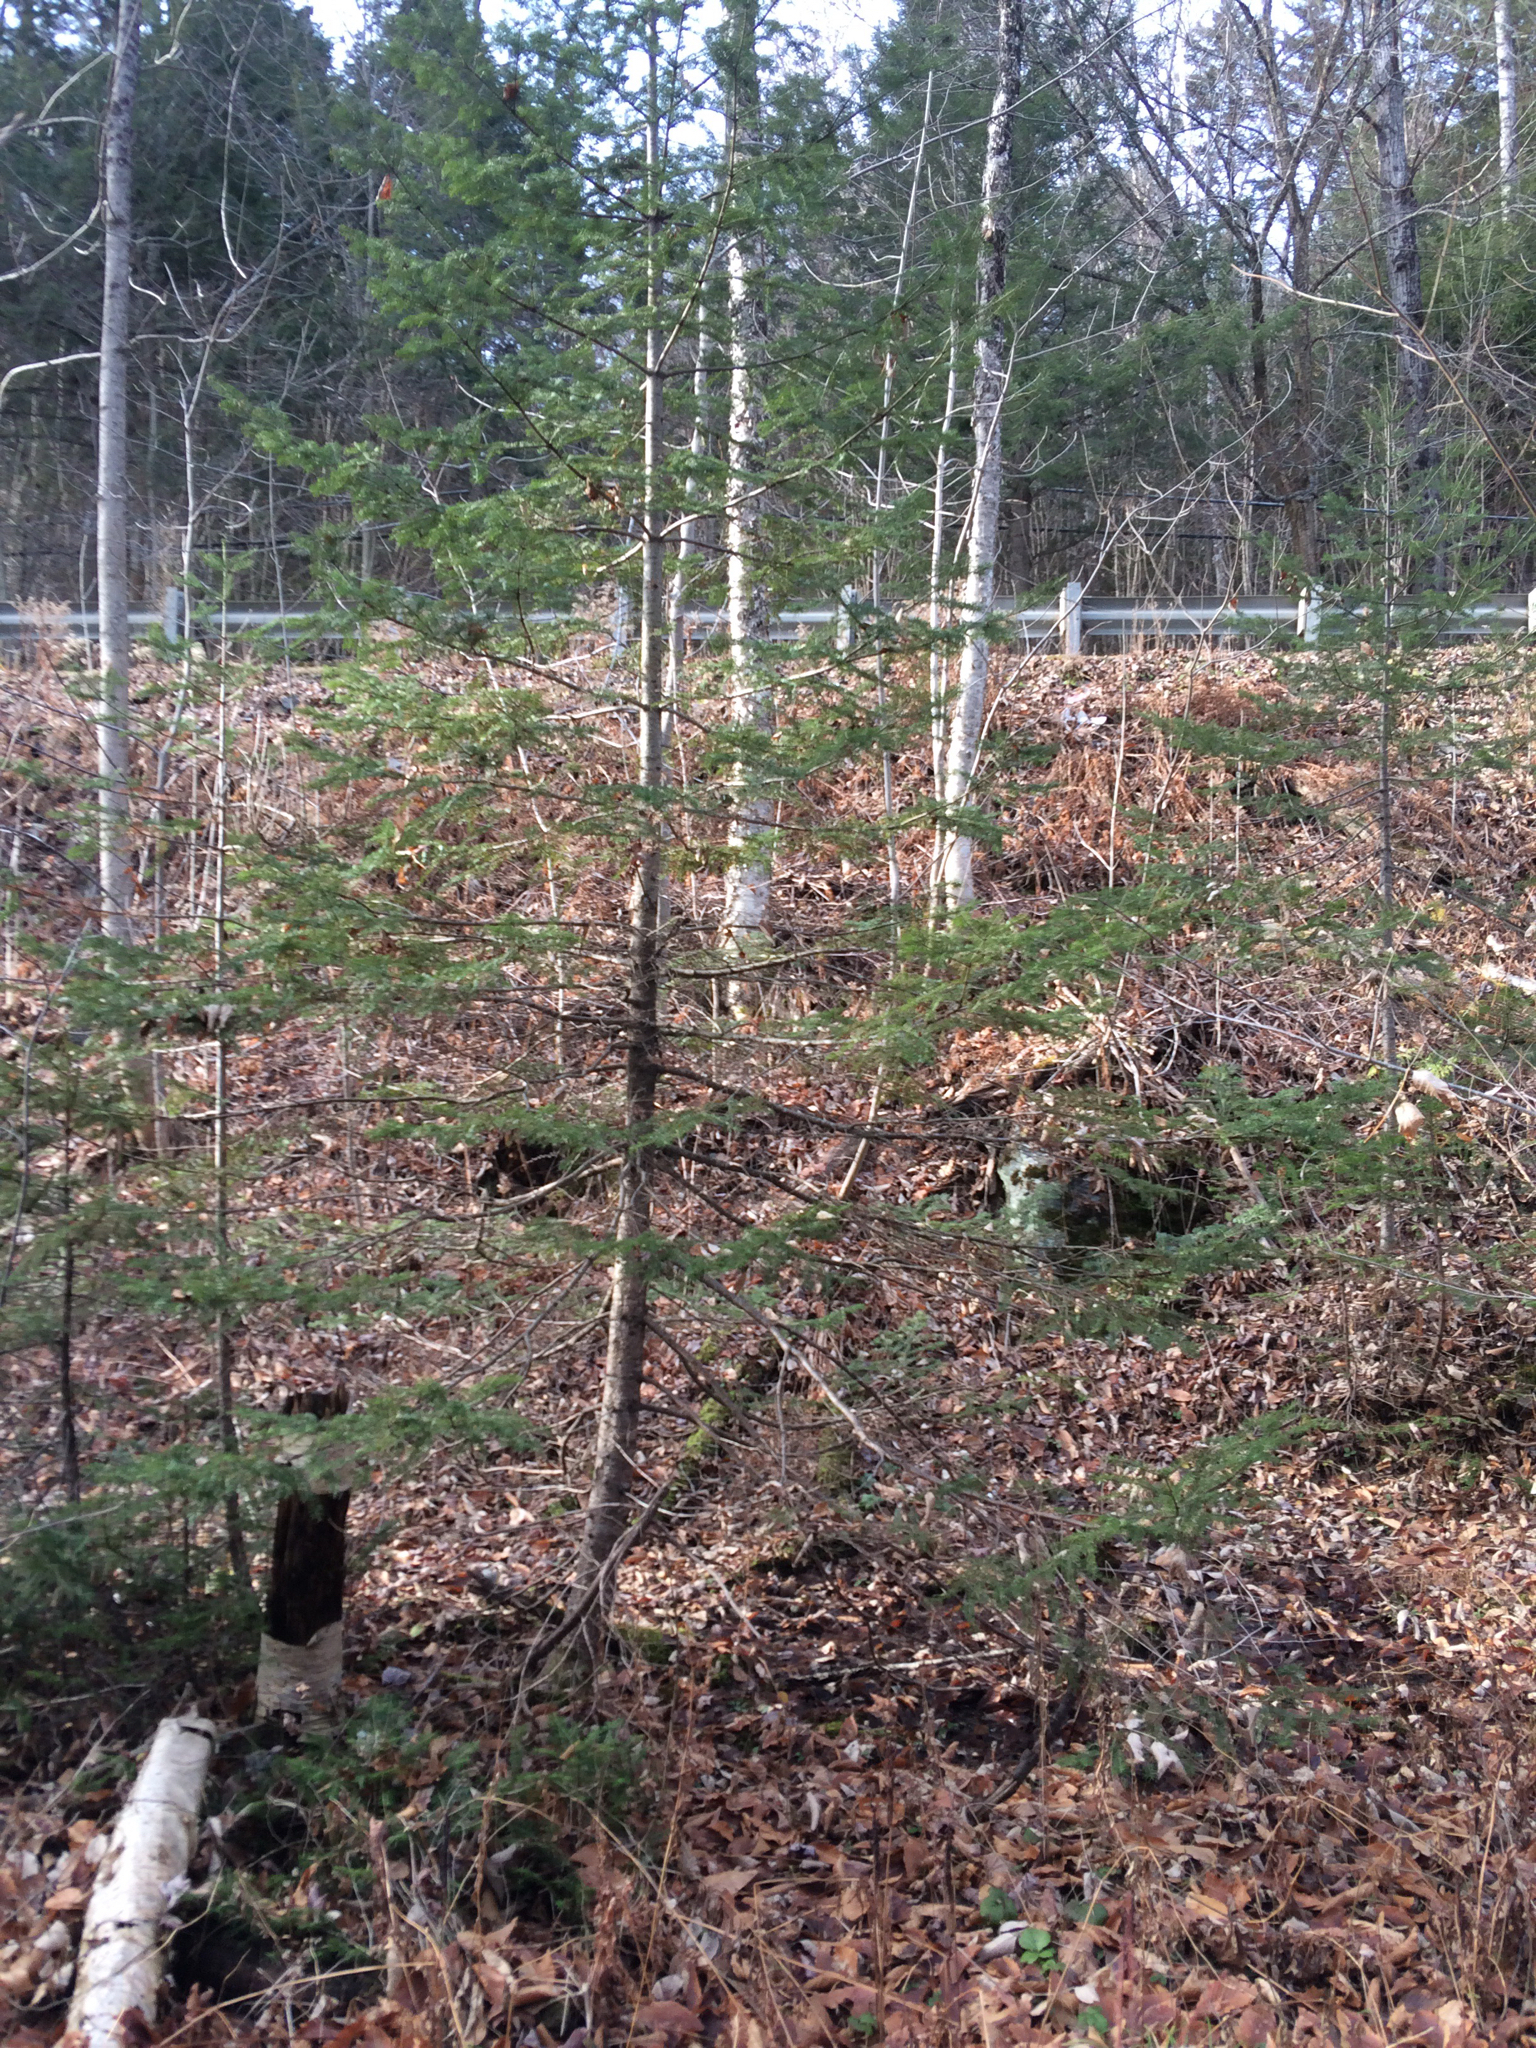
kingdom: Plantae
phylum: Tracheophyta
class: Pinopsida
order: Pinales
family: Pinaceae
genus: Abies
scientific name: Abies balsamea
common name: Balsam fir
